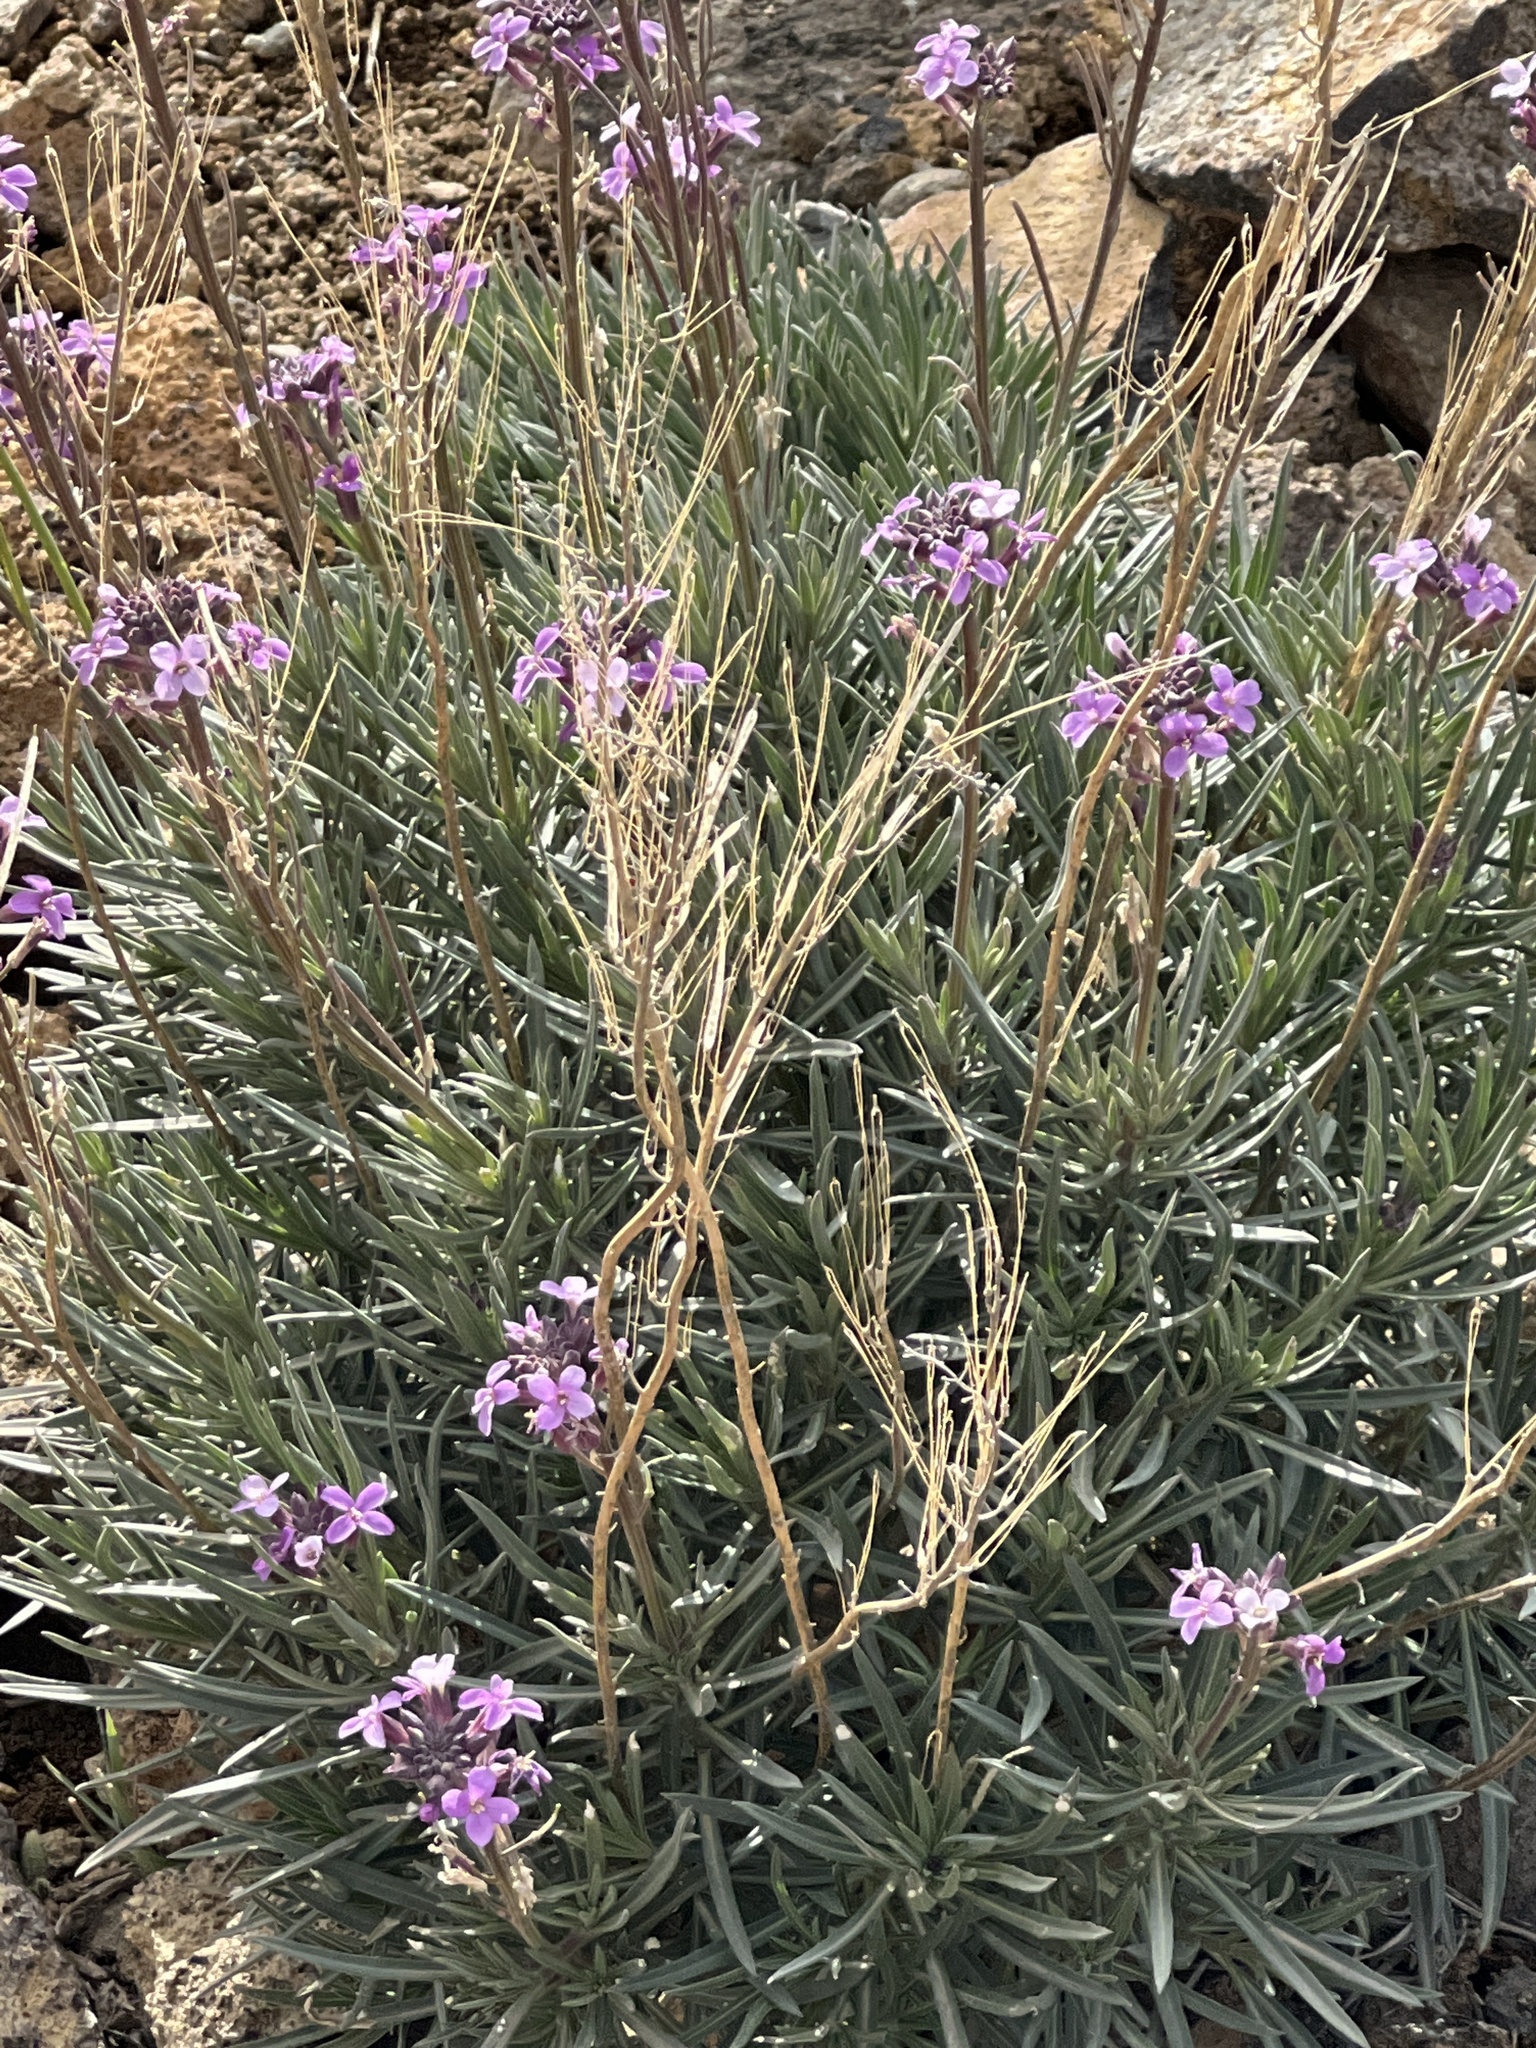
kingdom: Plantae
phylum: Tracheophyta
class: Magnoliopsida
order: Brassicales
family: Brassicaceae
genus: Erysimum
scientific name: Erysimum scoparium
